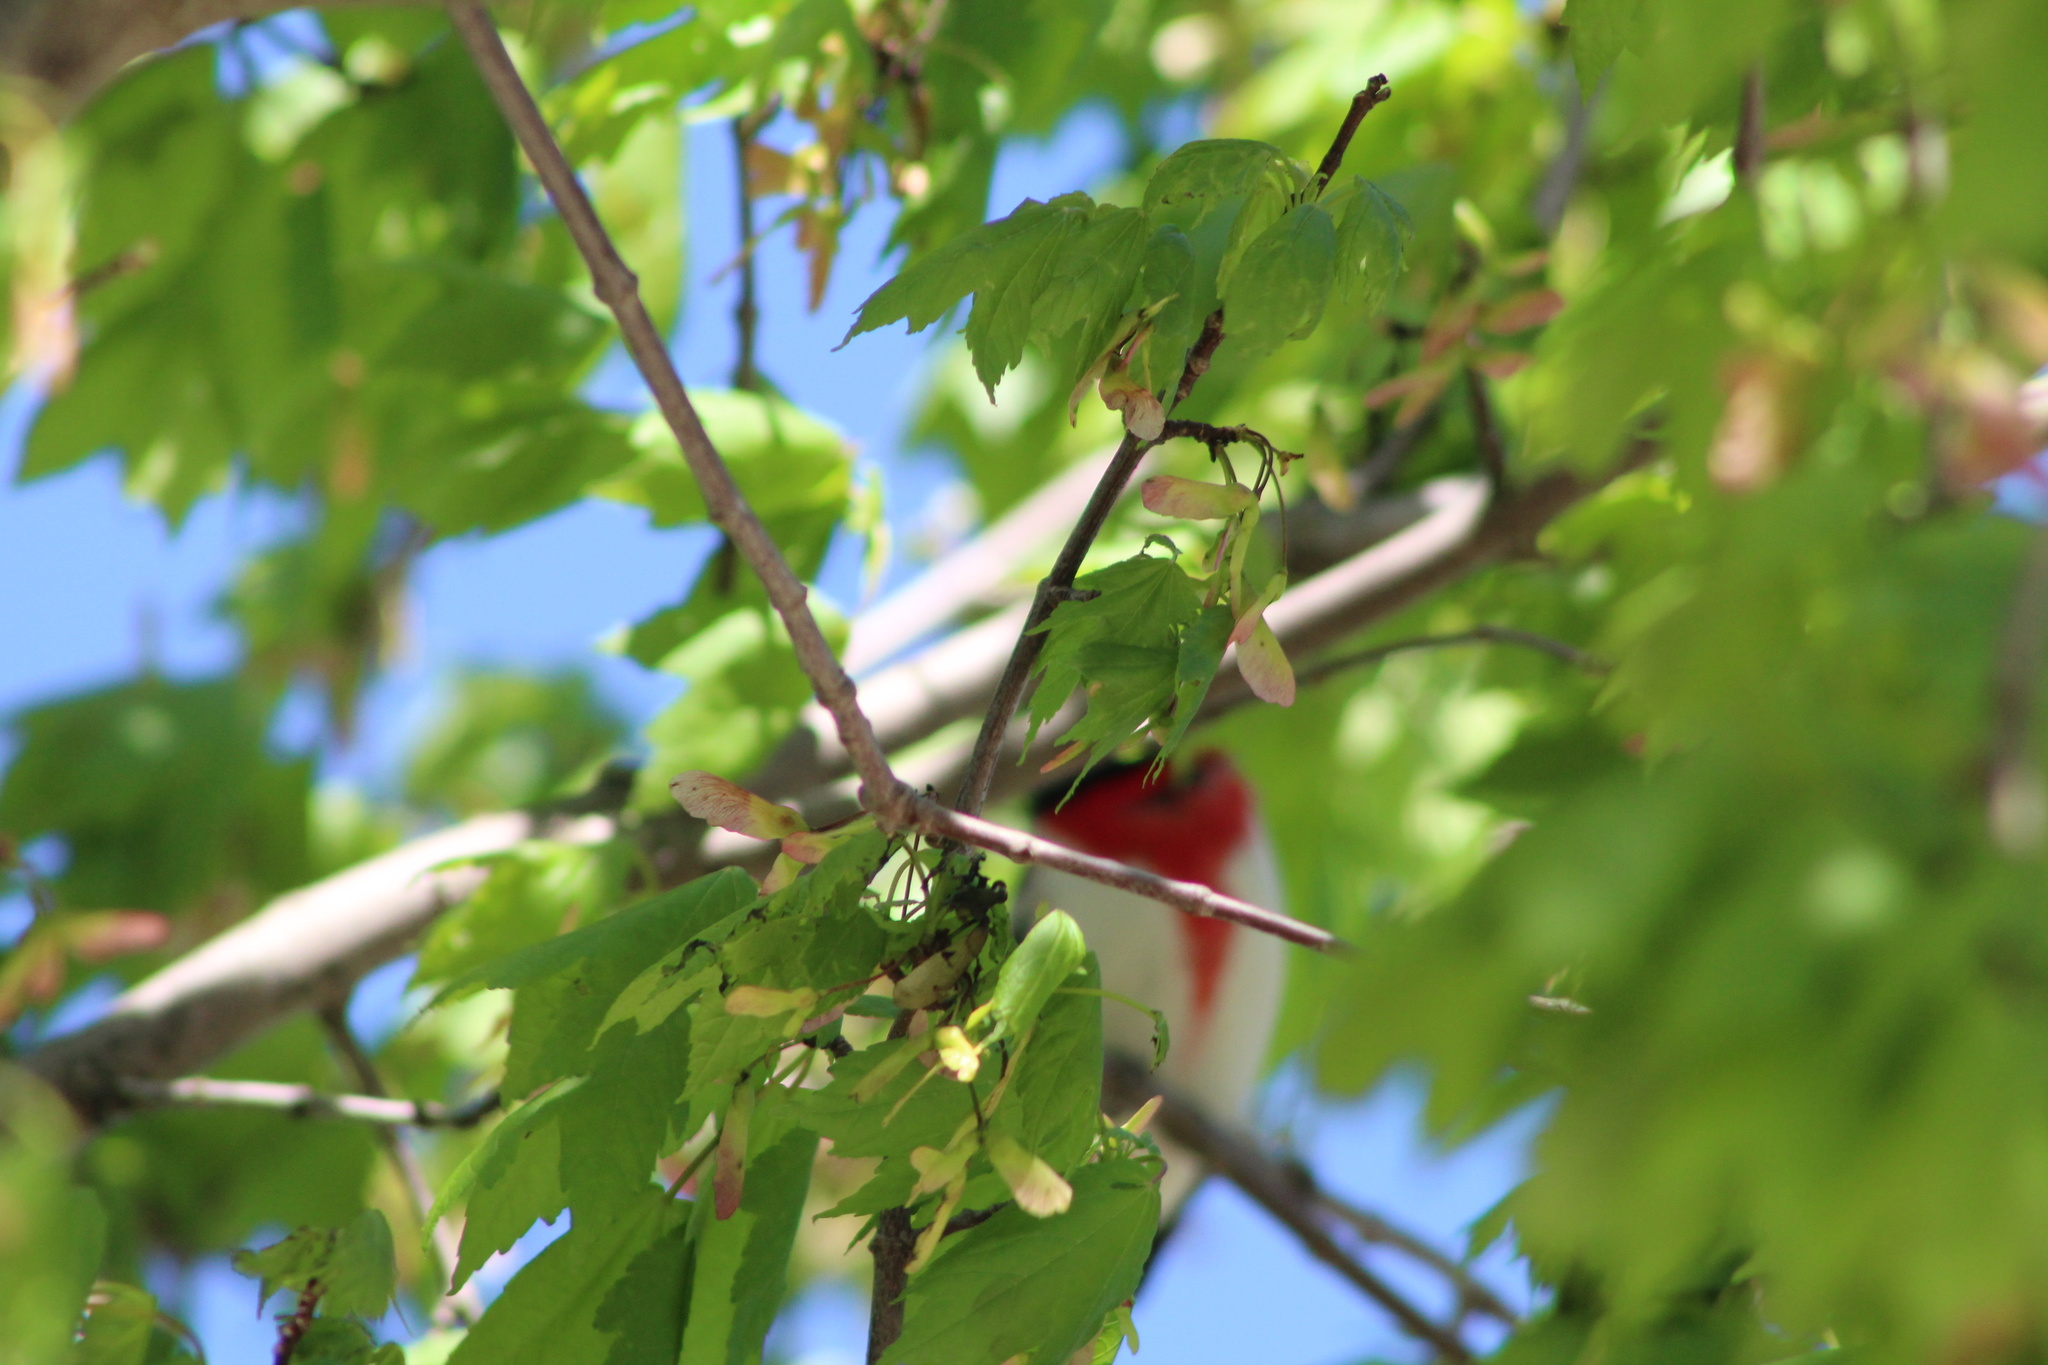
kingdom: Animalia
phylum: Chordata
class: Aves
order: Passeriformes
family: Cardinalidae
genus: Pheucticus
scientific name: Pheucticus ludovicianus
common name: Rose-breasted grosbeak
